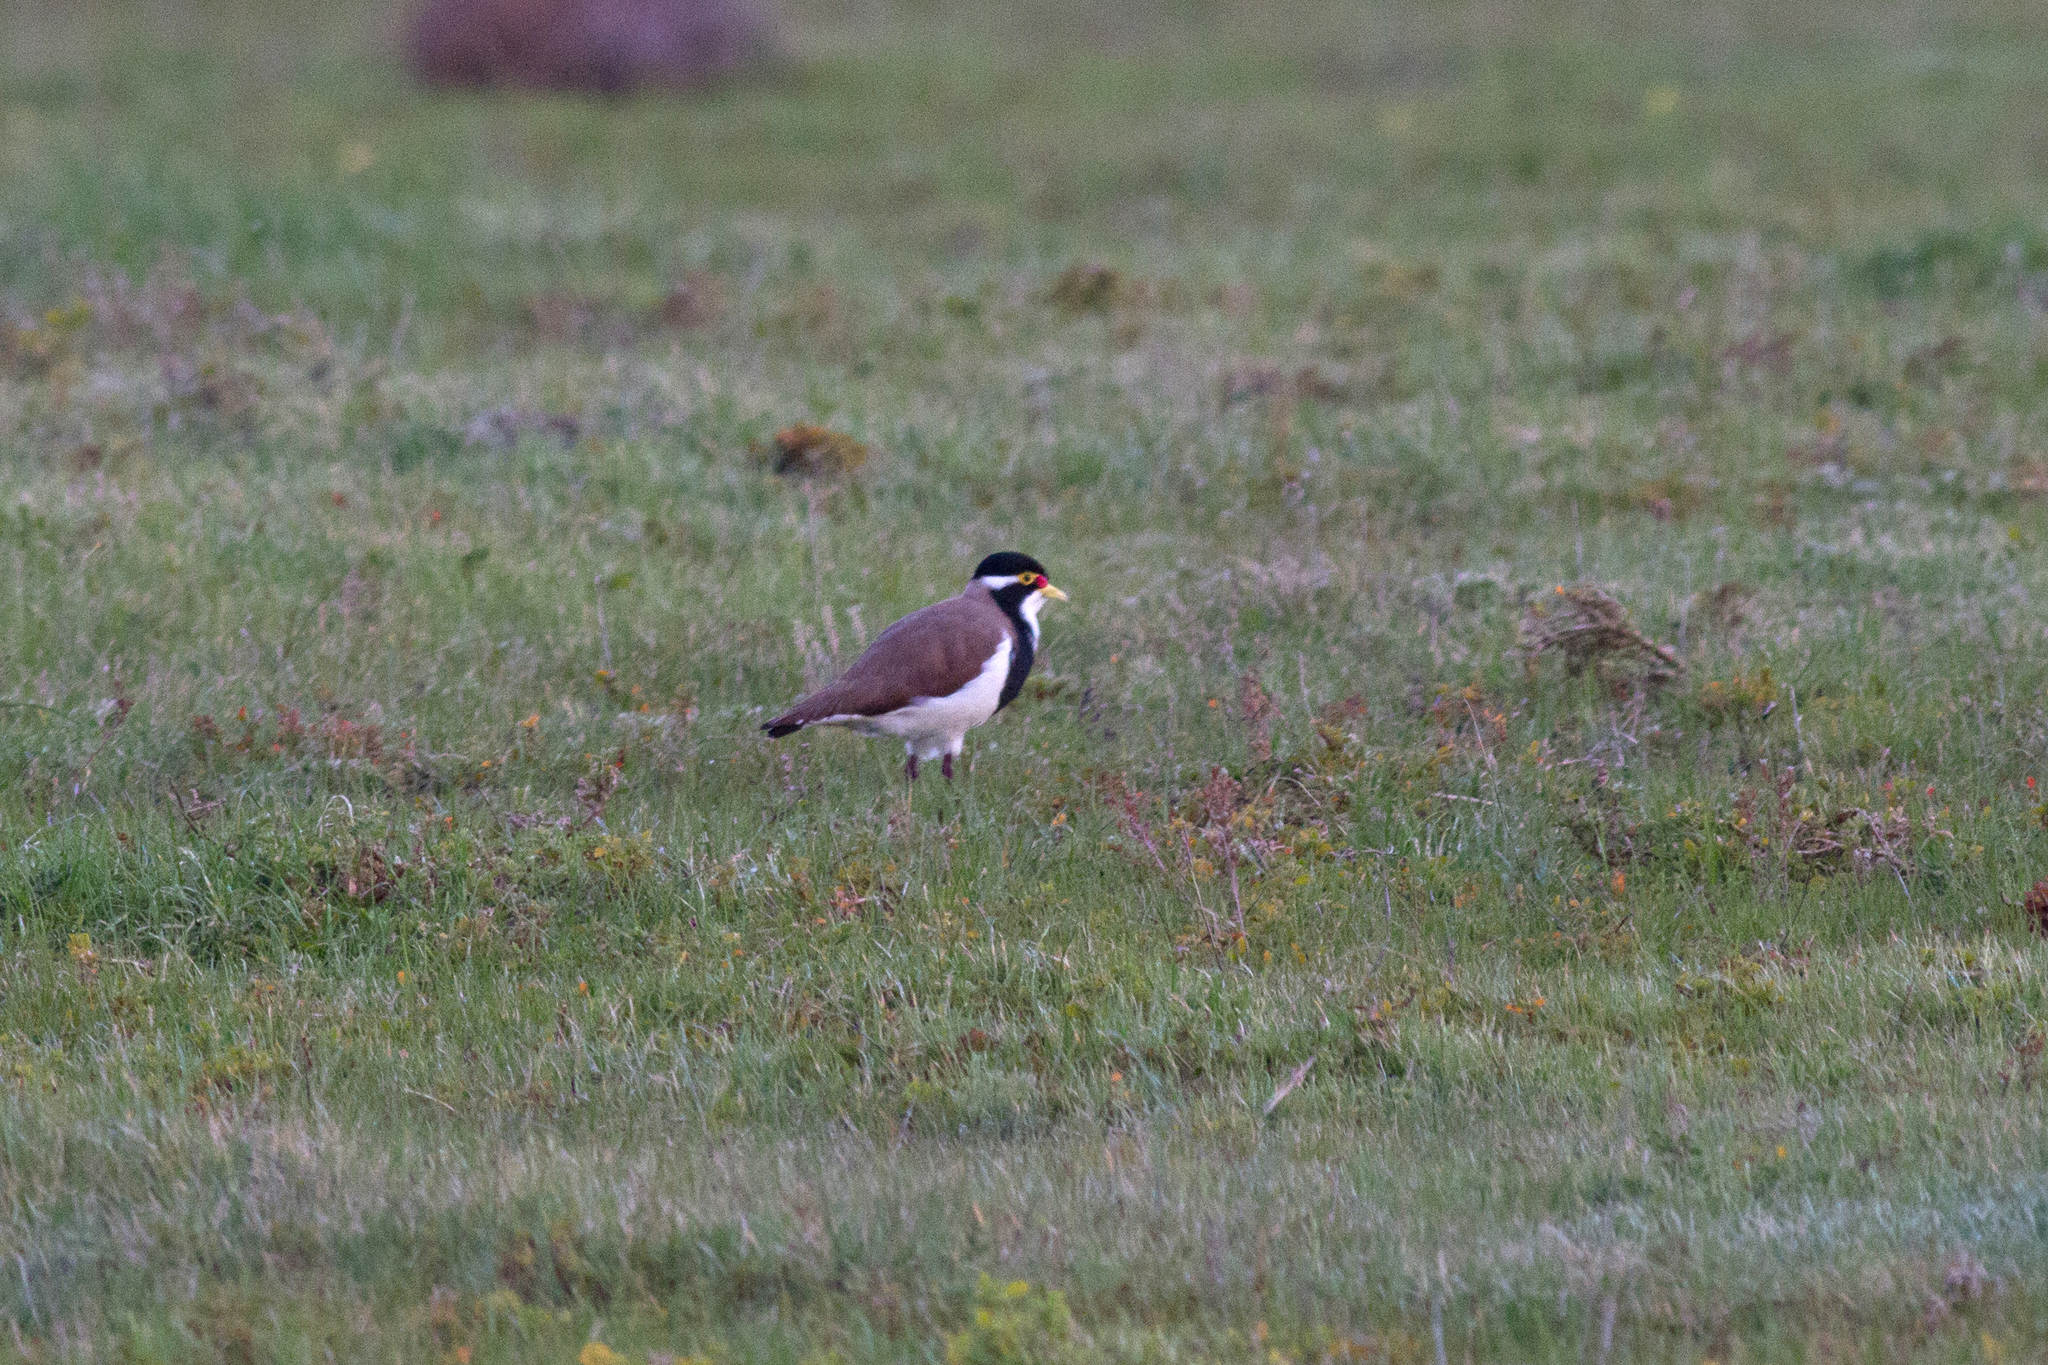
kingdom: Animalia
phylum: Chordata
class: Aves
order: Charadriiformes
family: Charadriidae
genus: Vanellus
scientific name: Vanellus tricolor
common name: Banded lapwing
